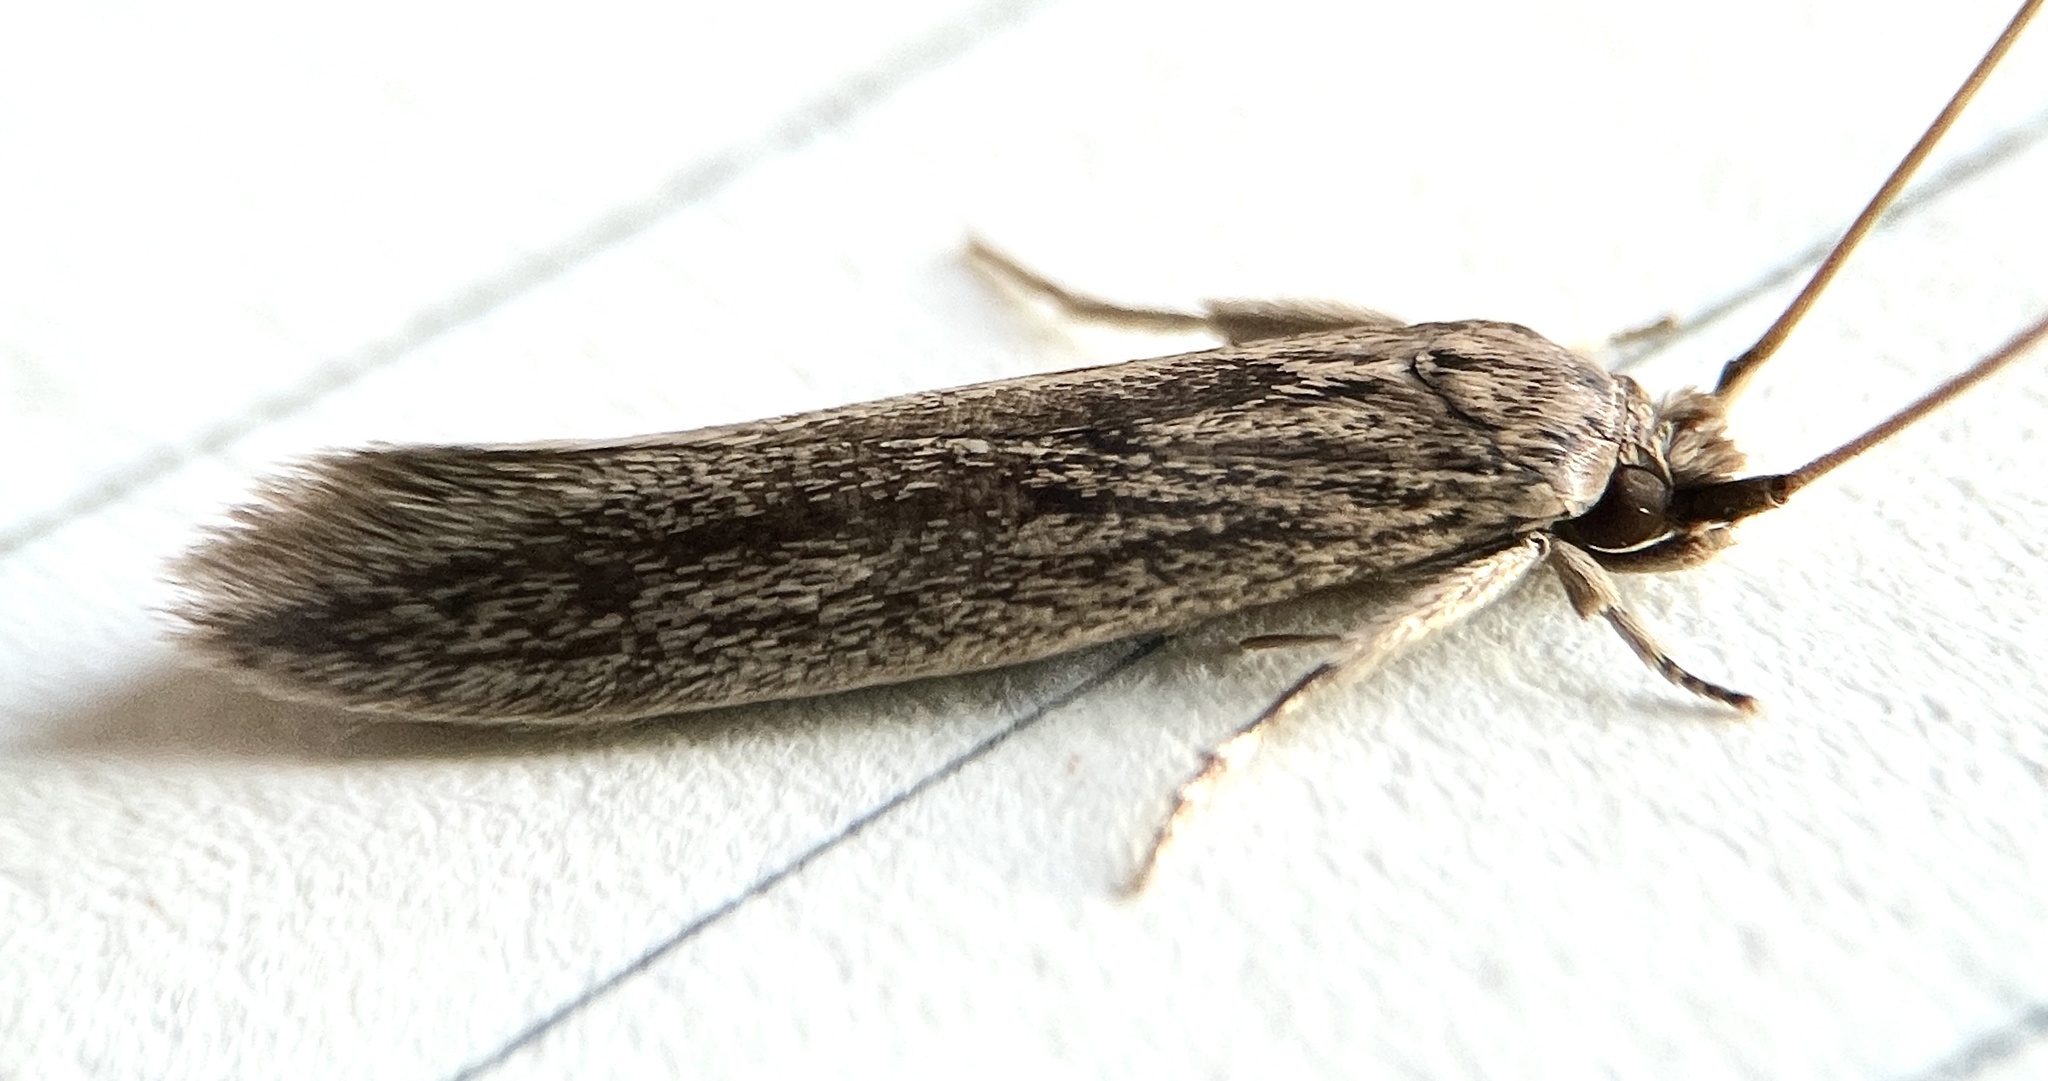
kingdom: Animalia
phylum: Arthropoda
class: Insecta
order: Lepidoptera
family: Tineidae
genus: Opogona
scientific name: Opogona sacchari
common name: Banana bud moth
